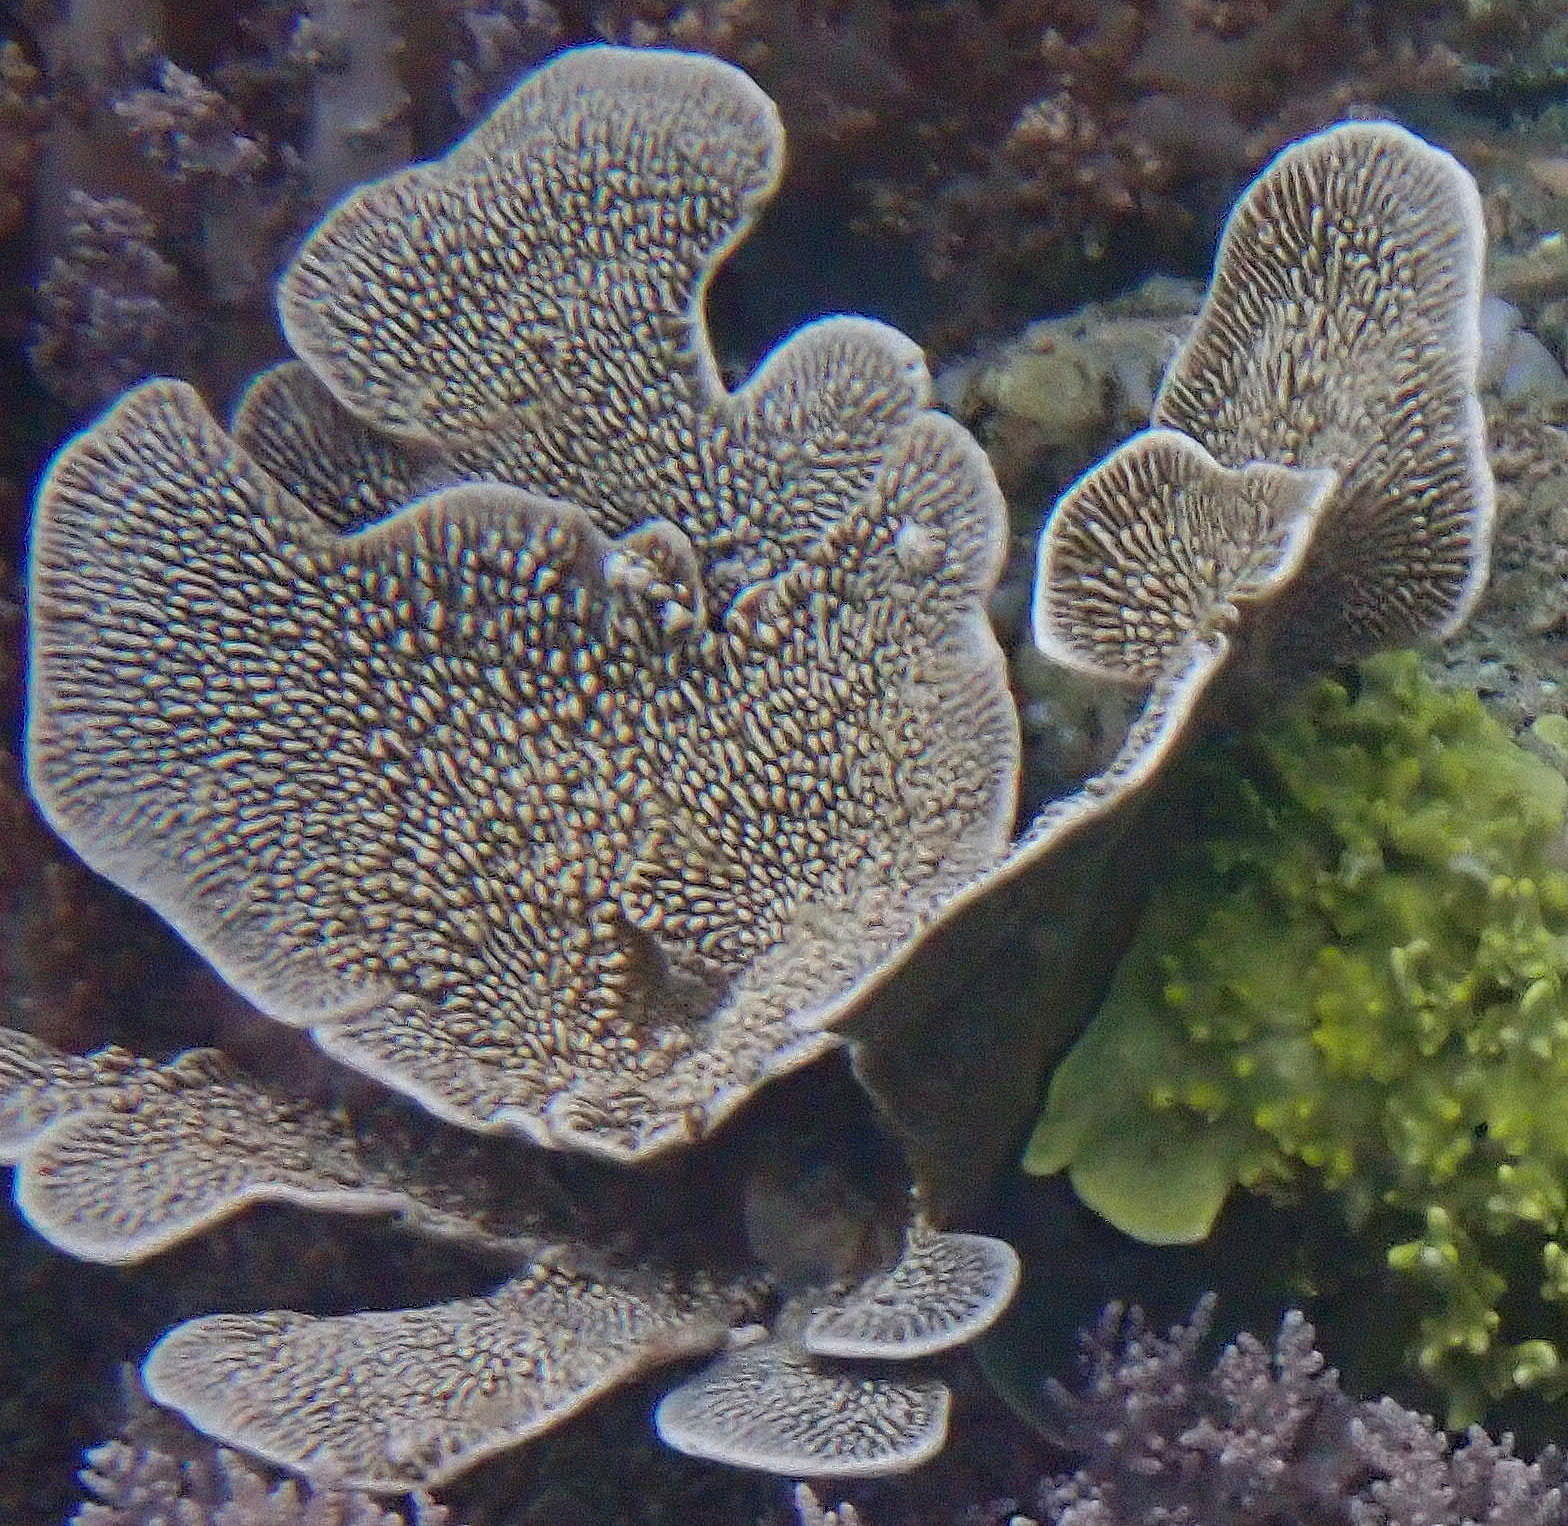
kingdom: Animalia
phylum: Porifera
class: Demospongiae
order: Dictyoceratida
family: Thorectidae
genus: Phyllospongia
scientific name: Phyllospongia foliascens
